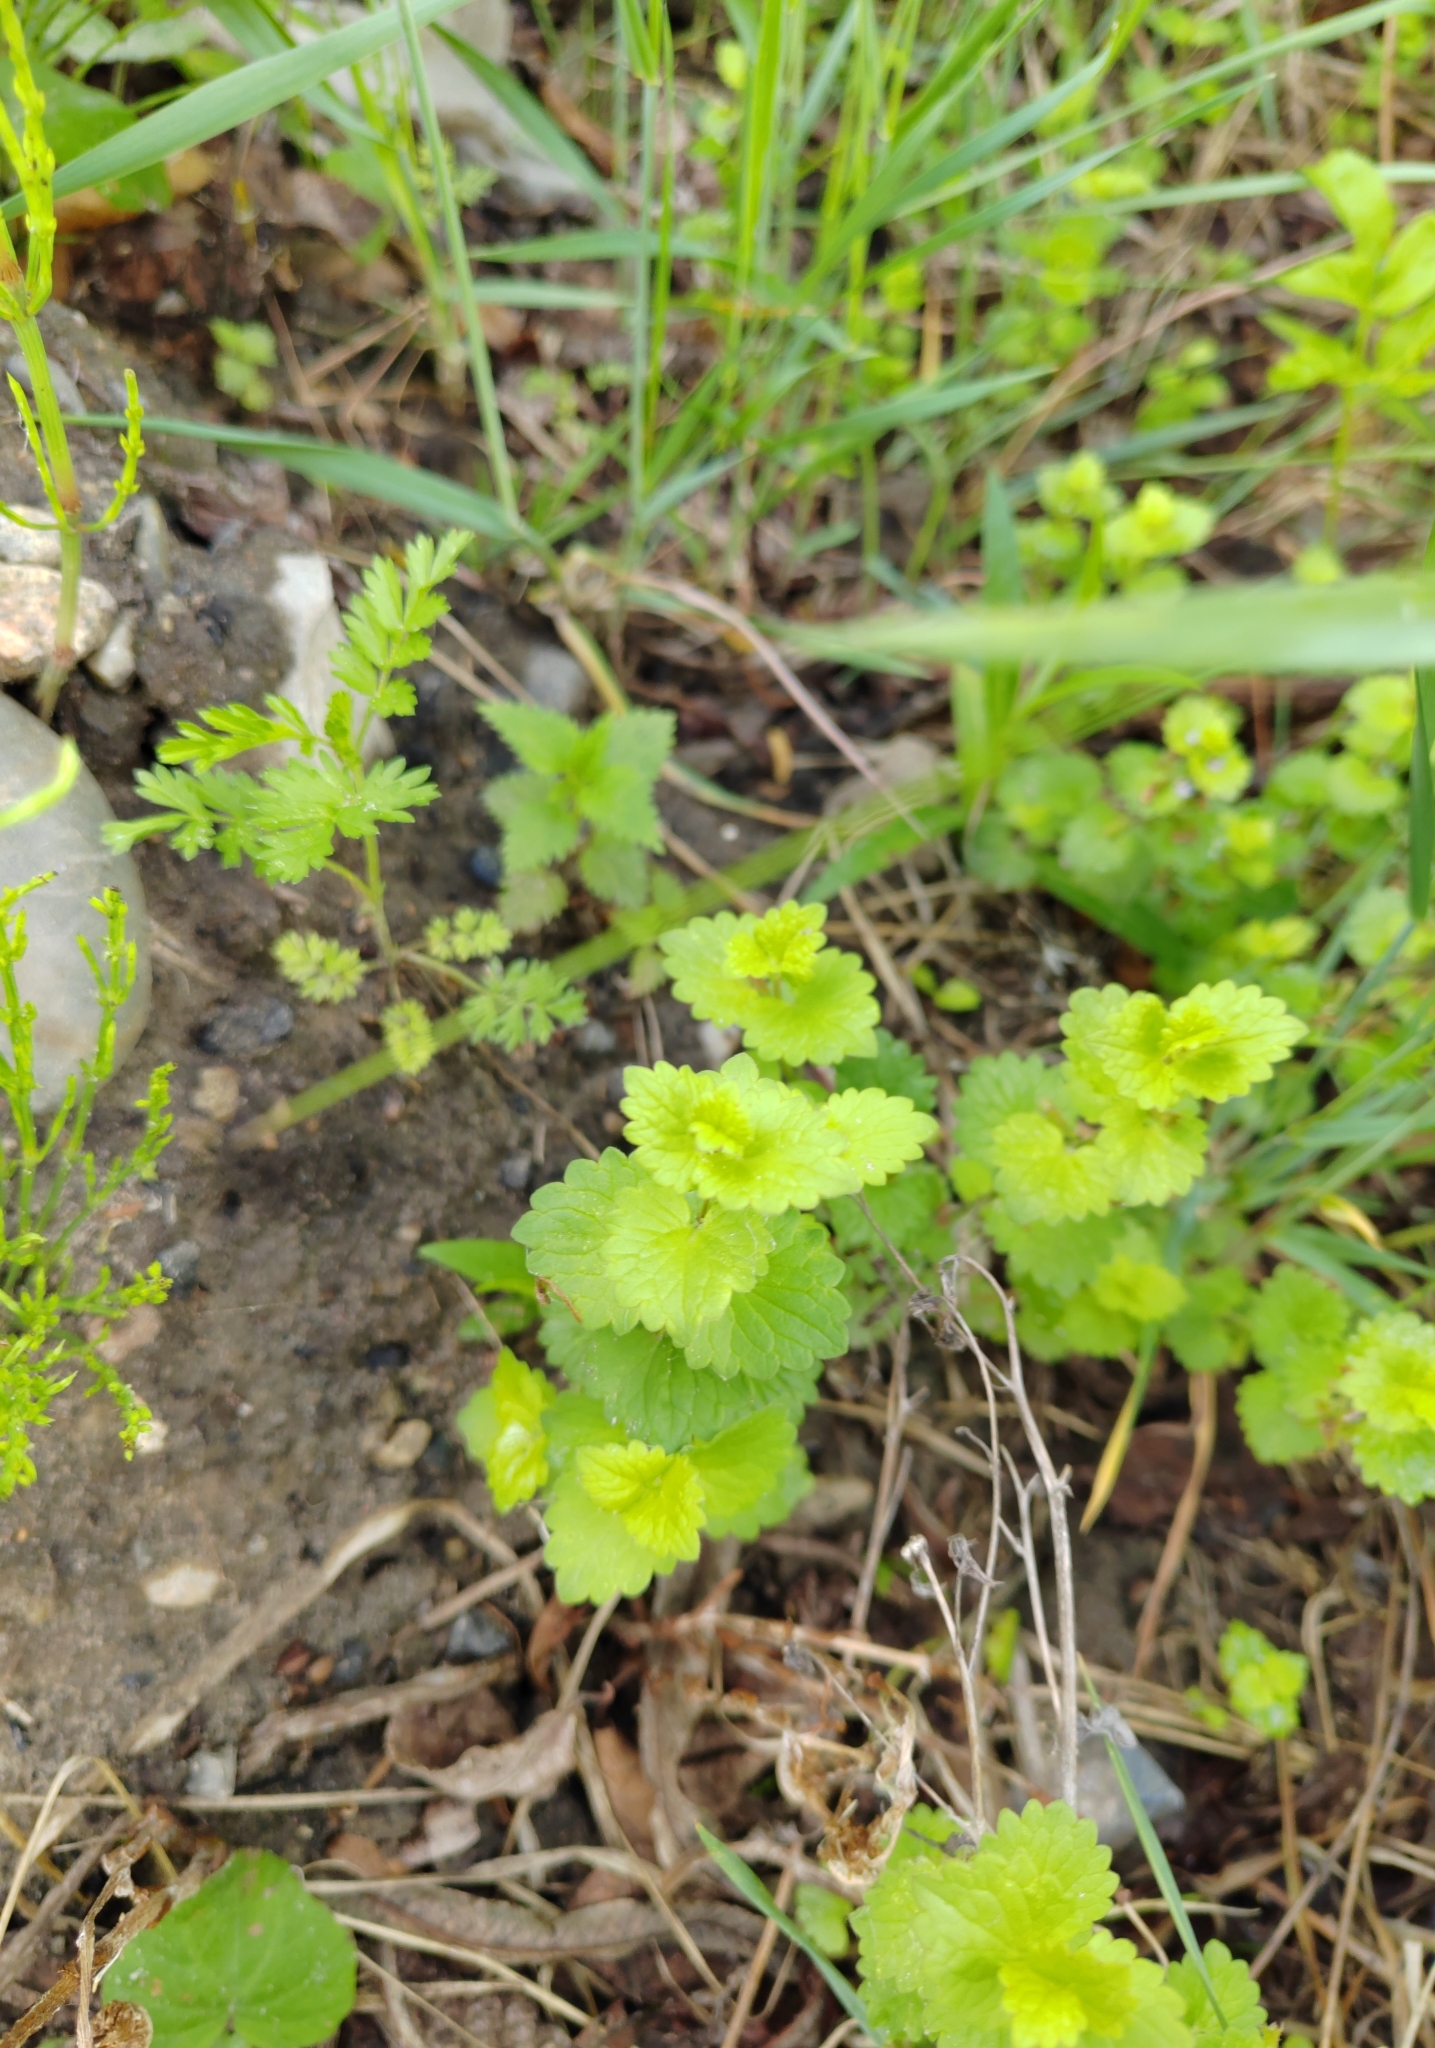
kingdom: Plantae
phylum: Tracheophyta
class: Magnoliopsida
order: Lamiales
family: Lamiaceae
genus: Glechoma
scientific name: Glechoma hederacea
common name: Ground ivy
